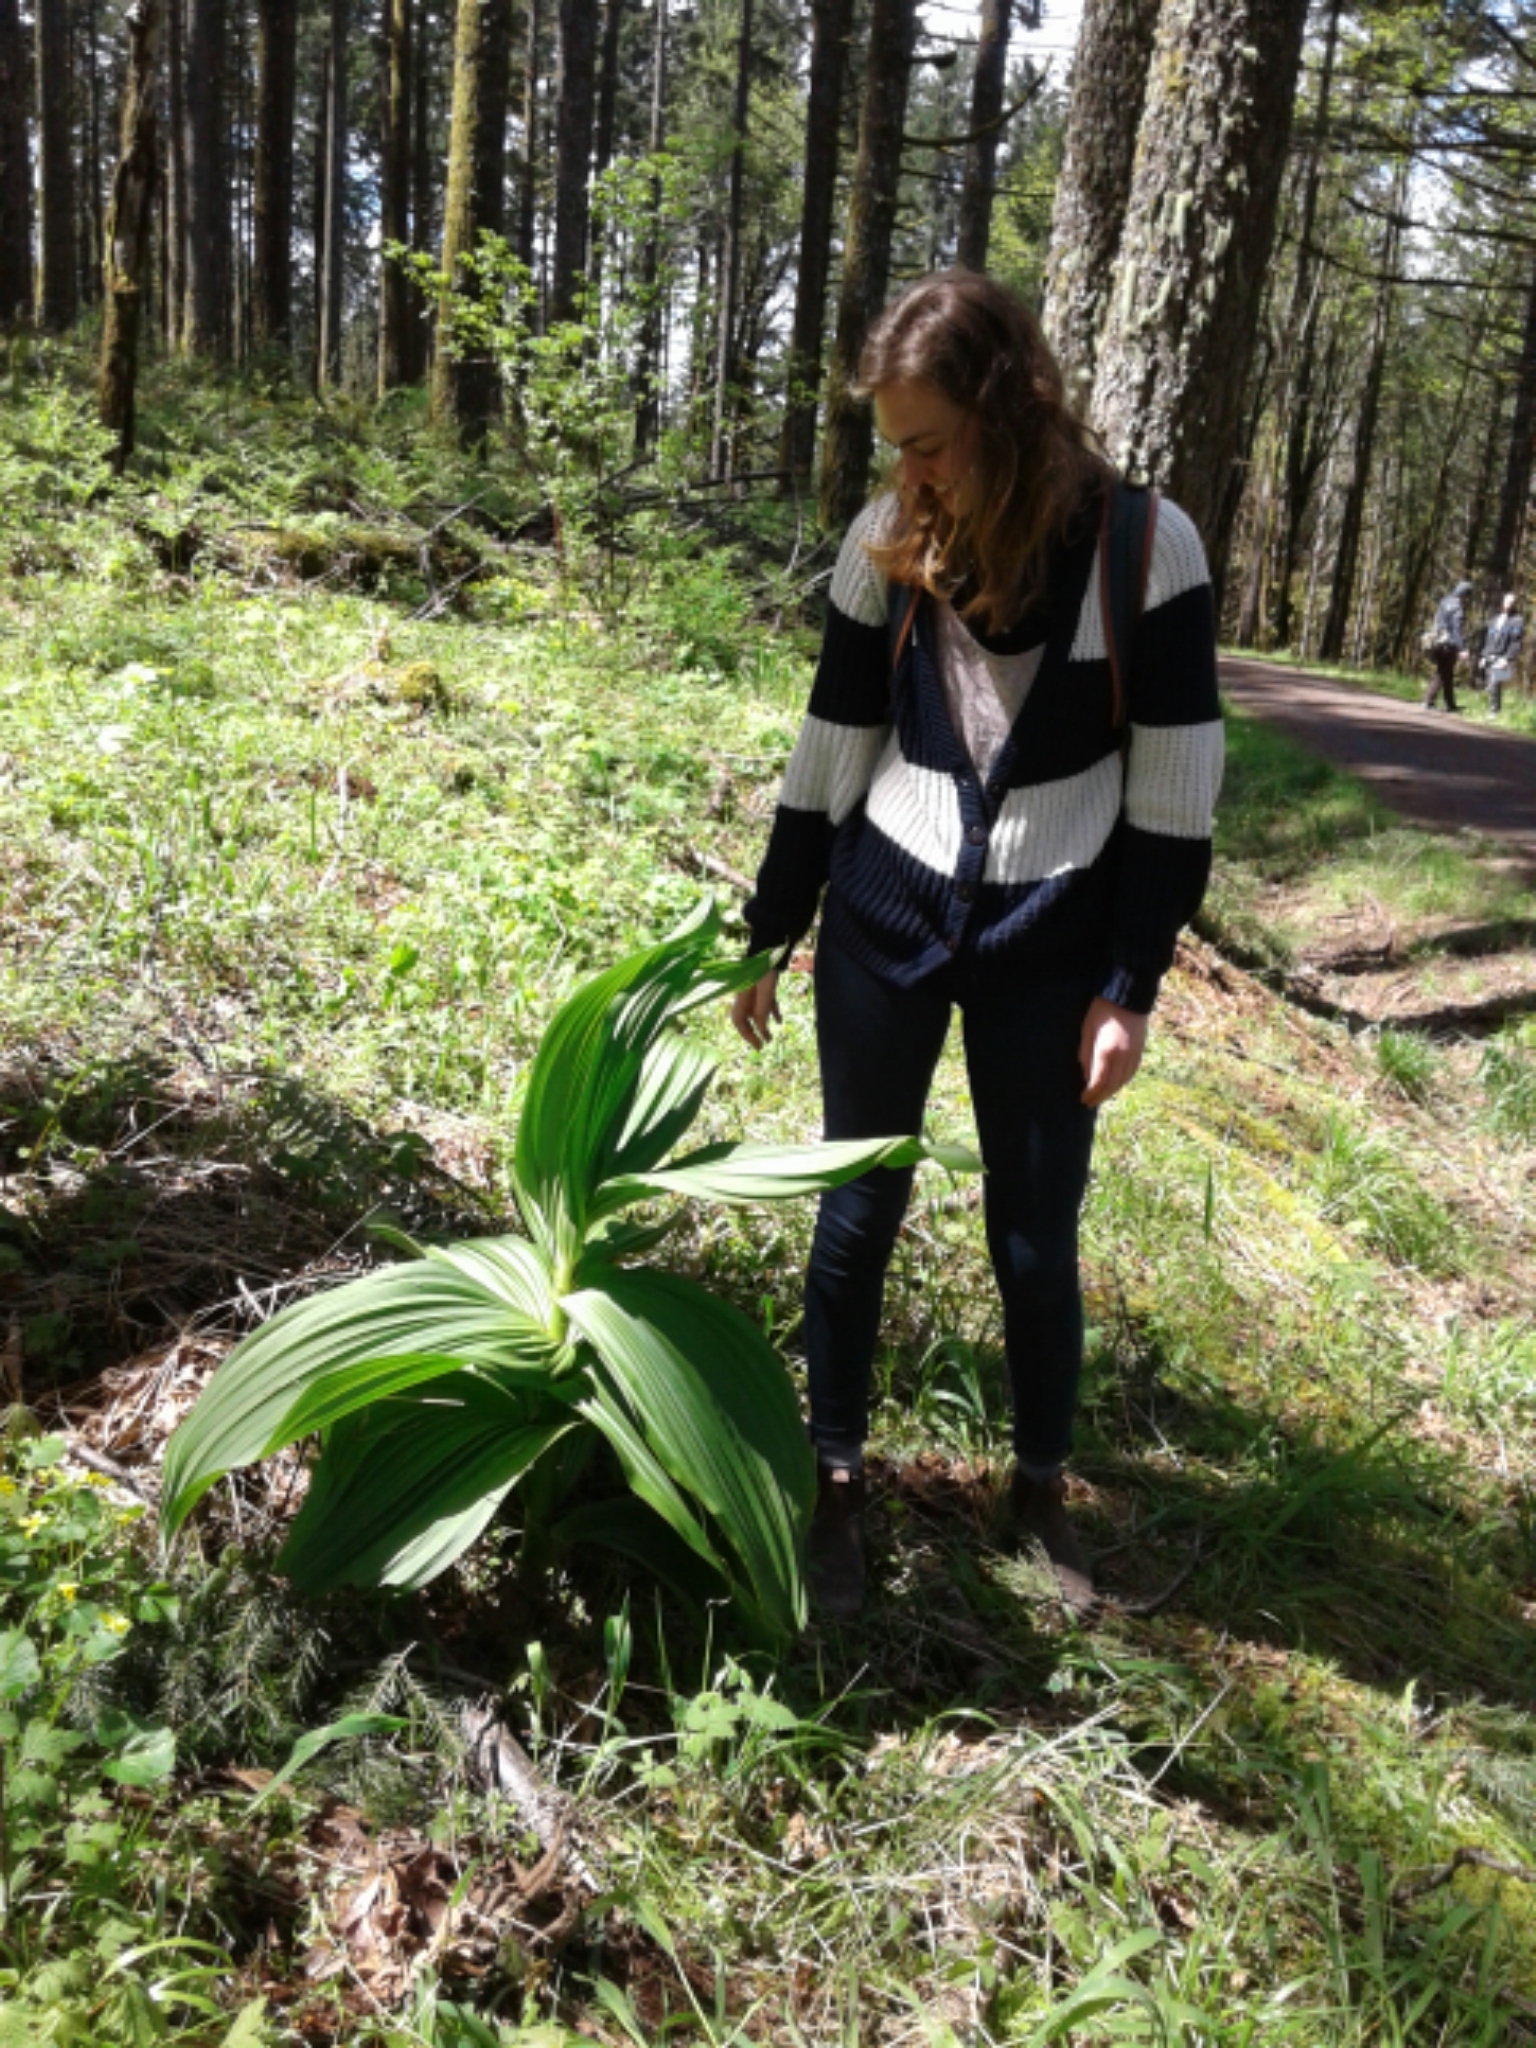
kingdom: Plantae
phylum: Tracheophyta
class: Liliopsida
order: Liliales
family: Melanthiaceae
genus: Veratrum
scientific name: Veratrum insolitum
